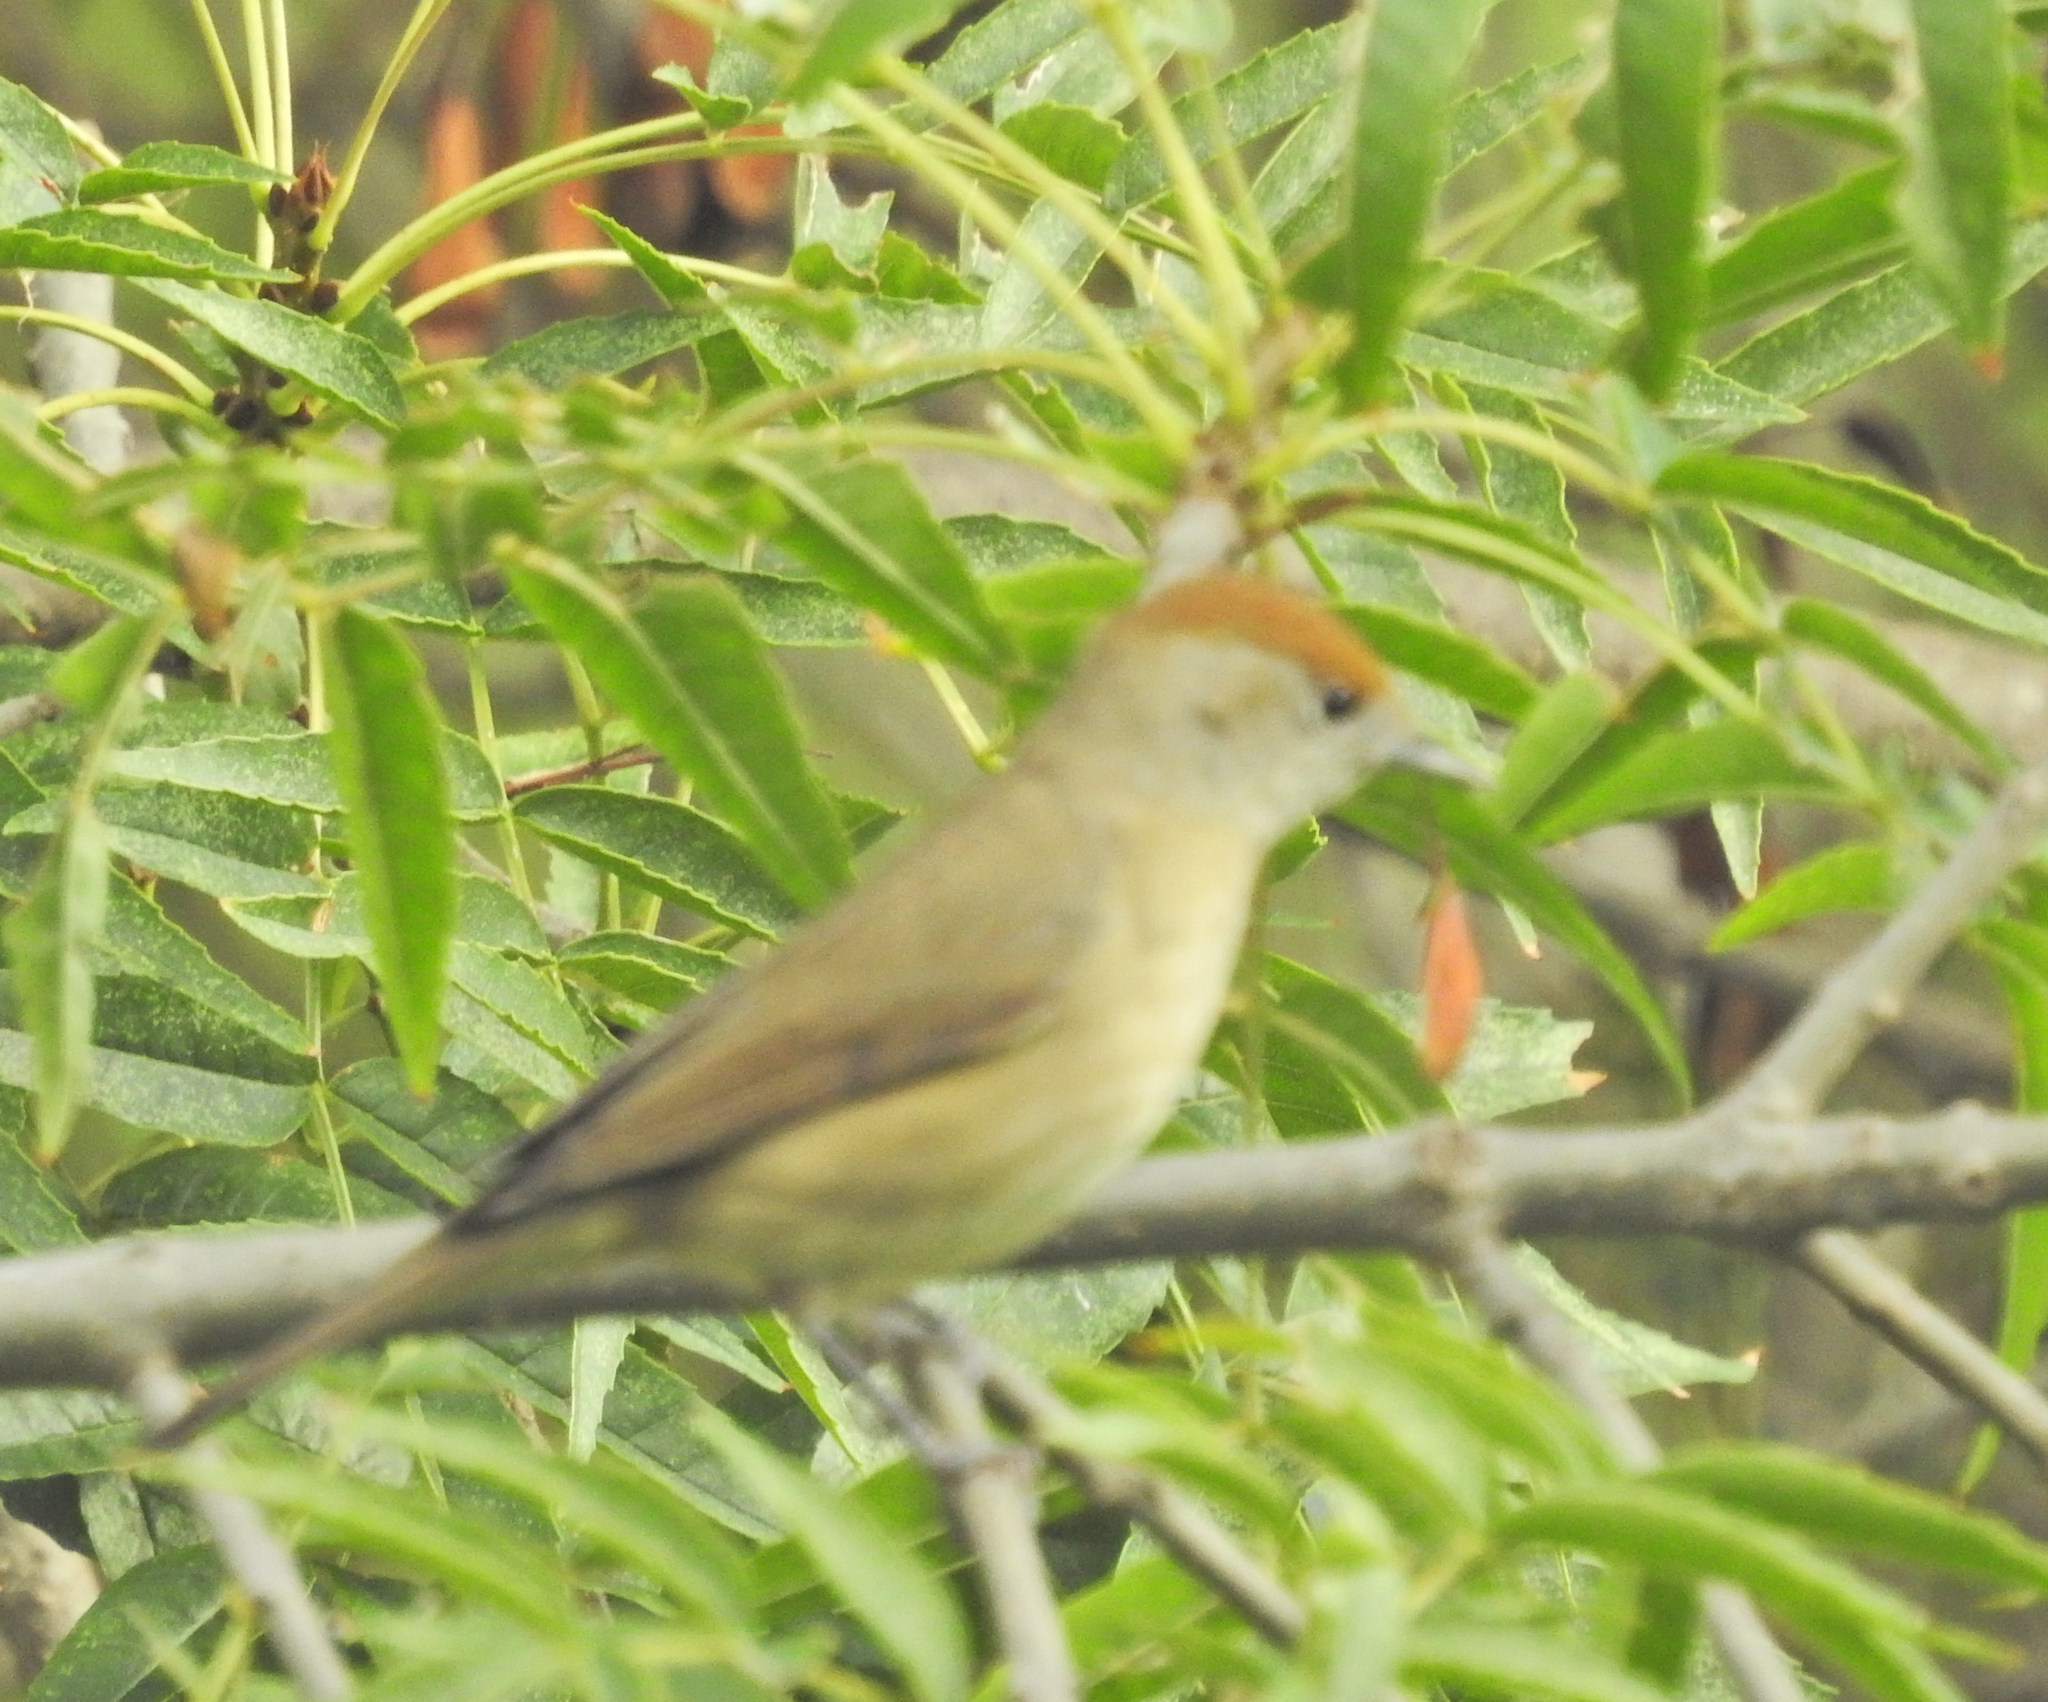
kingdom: Animalia
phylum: Chordata
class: Aves
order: Passeriformes
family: Sylviidae
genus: Sylvia
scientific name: Sylvia atricapilla
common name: Eurasian blackcap
